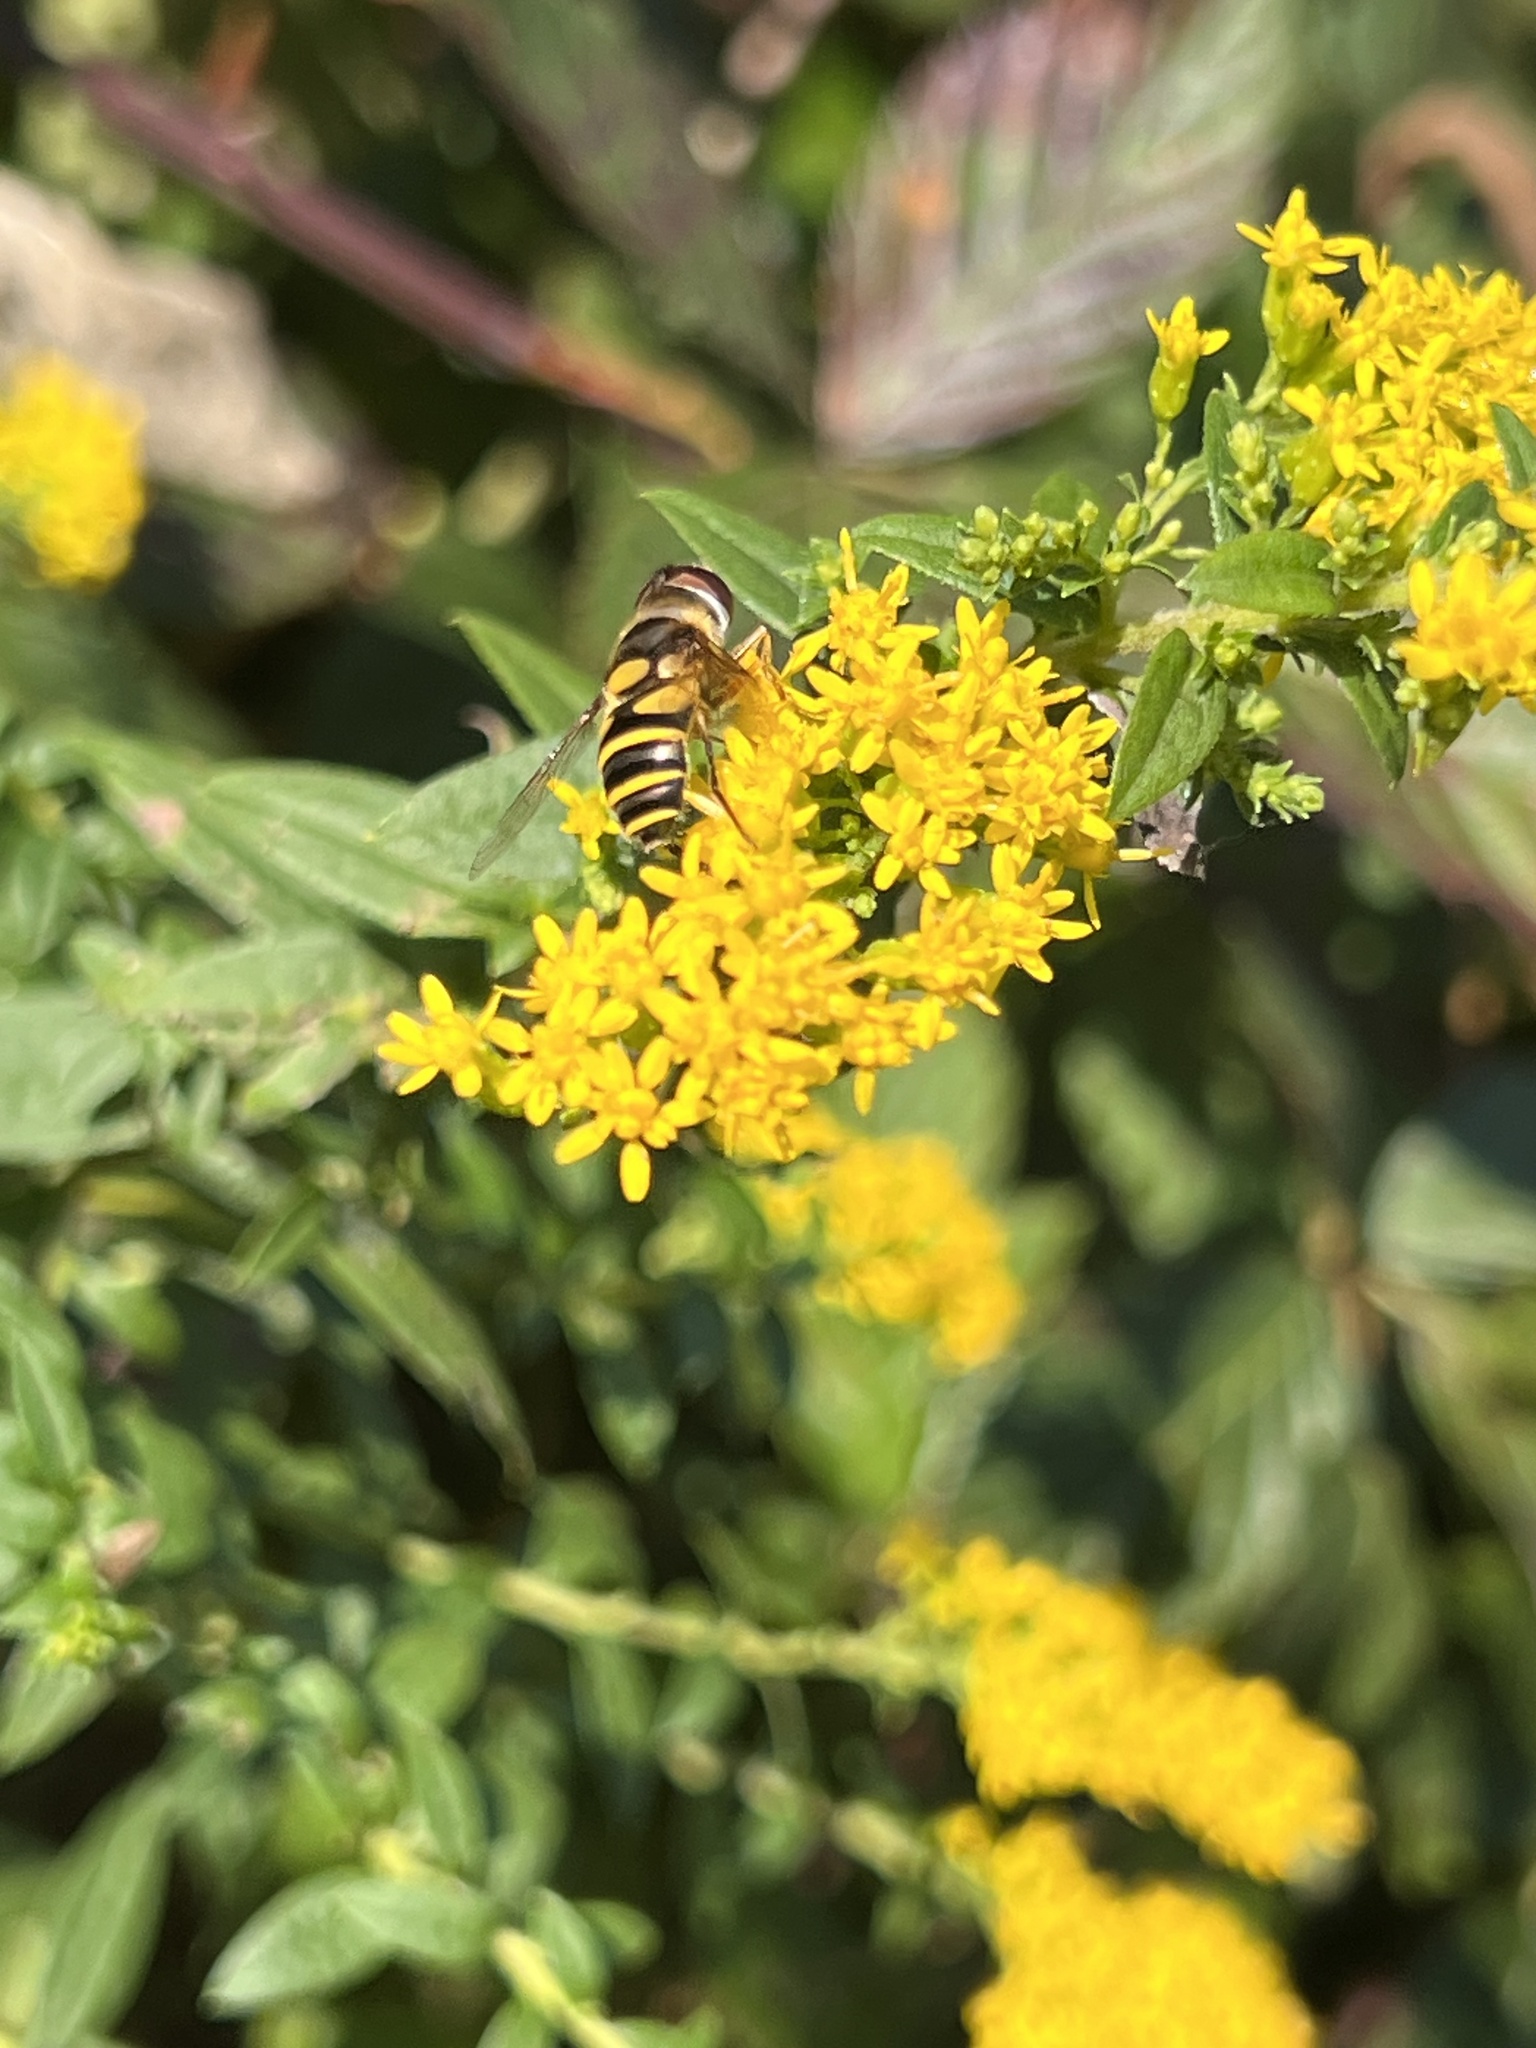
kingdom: Animalia
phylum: Arthropoda
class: Insecta
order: Diptera
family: Syrphidae
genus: Eristalis
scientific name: Eristalis transversa
